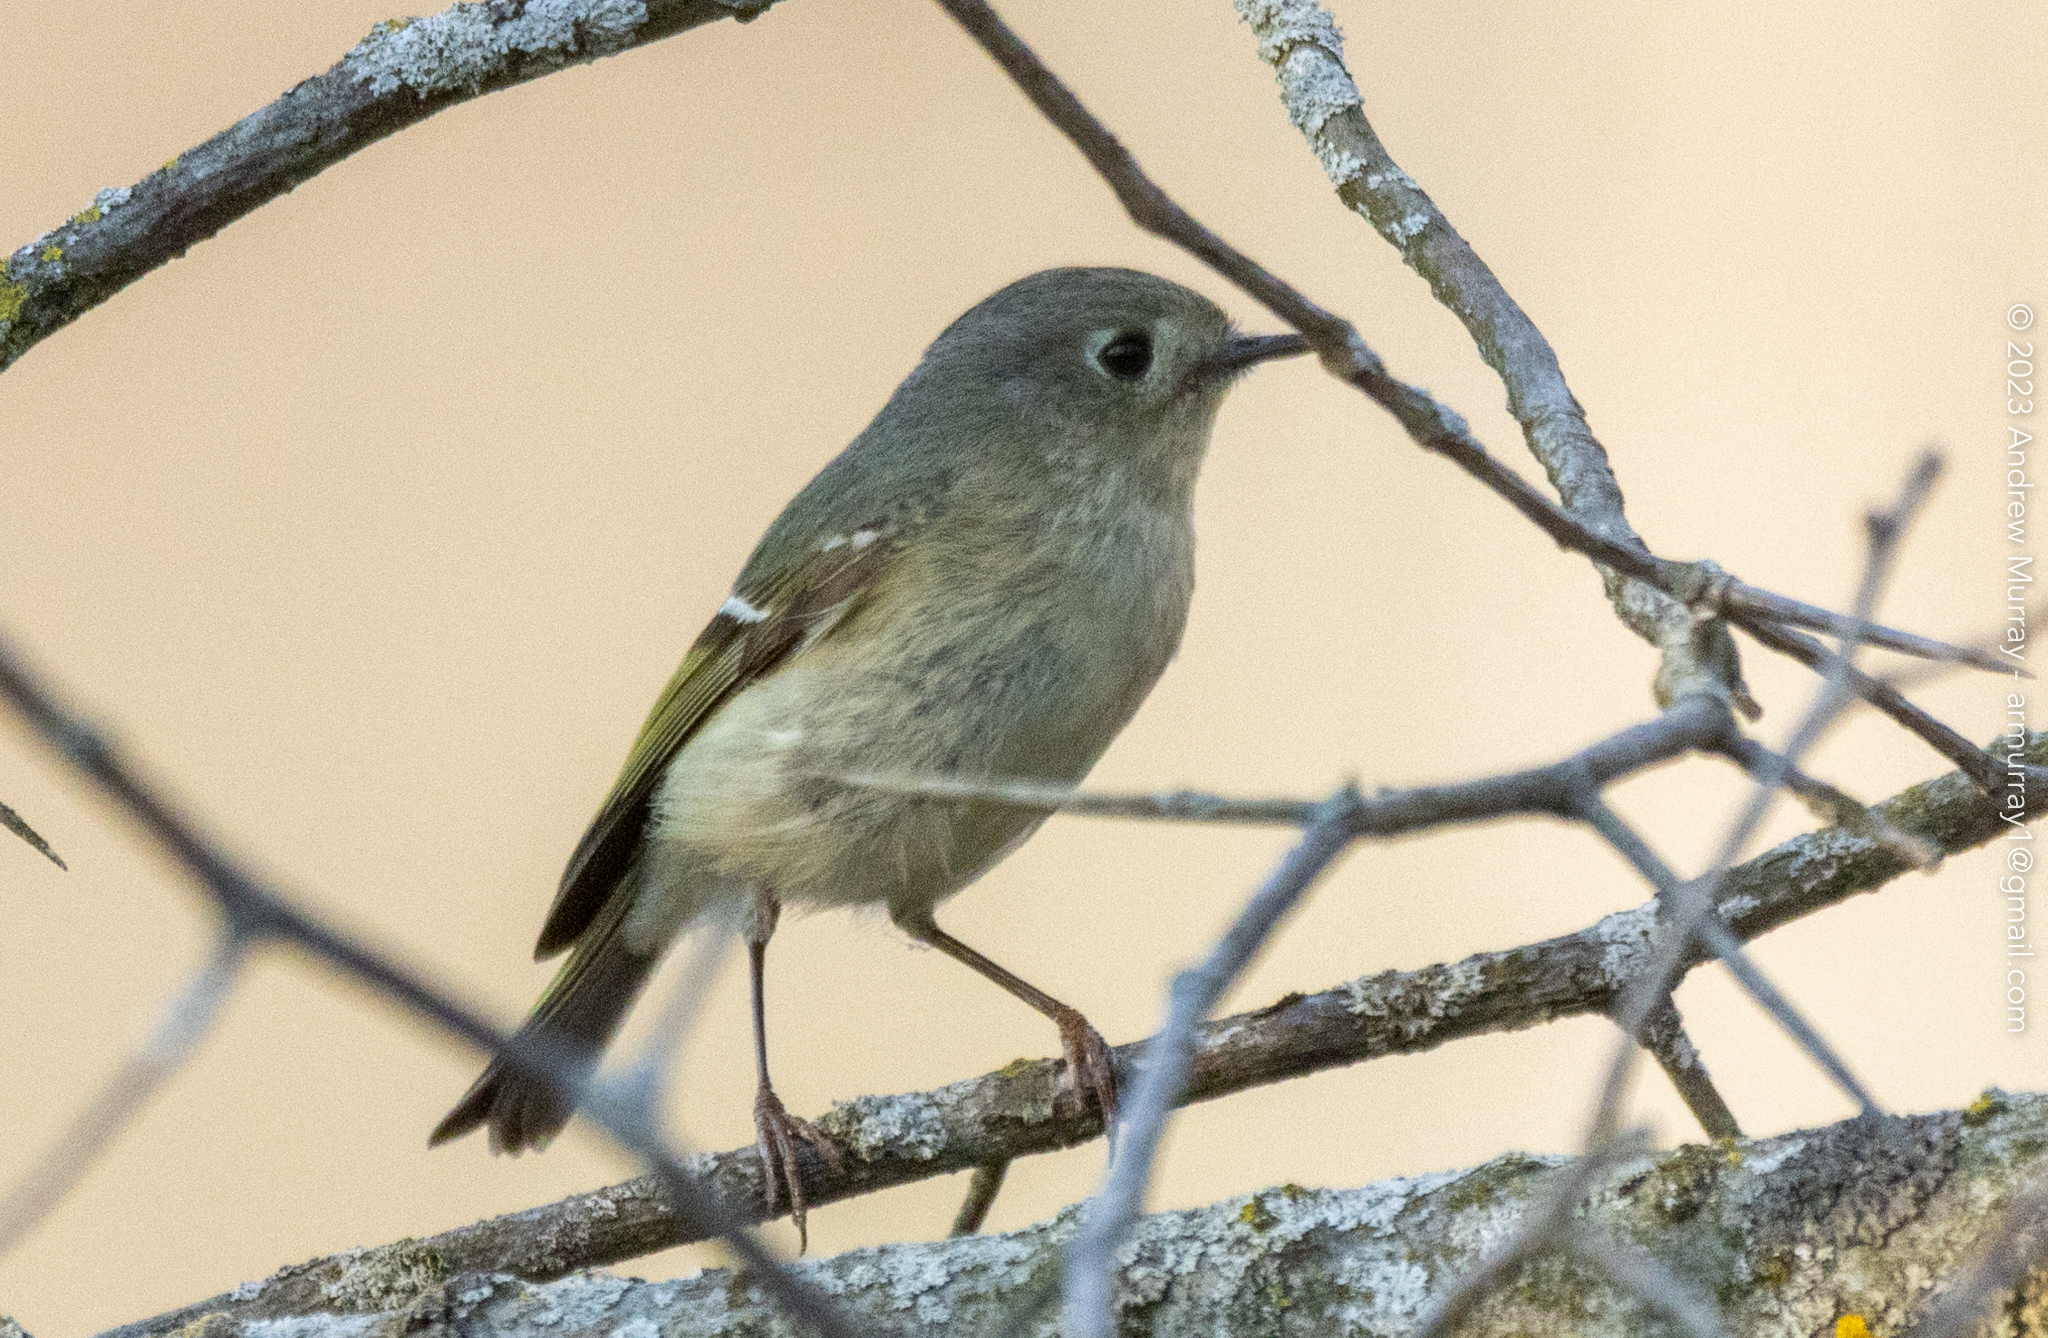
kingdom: Animalia
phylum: Chordata
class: Aves
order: Passeriformes
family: Regulidae
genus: Regulus
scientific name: Regulus calendula
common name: Ruby-crowned kinglet
